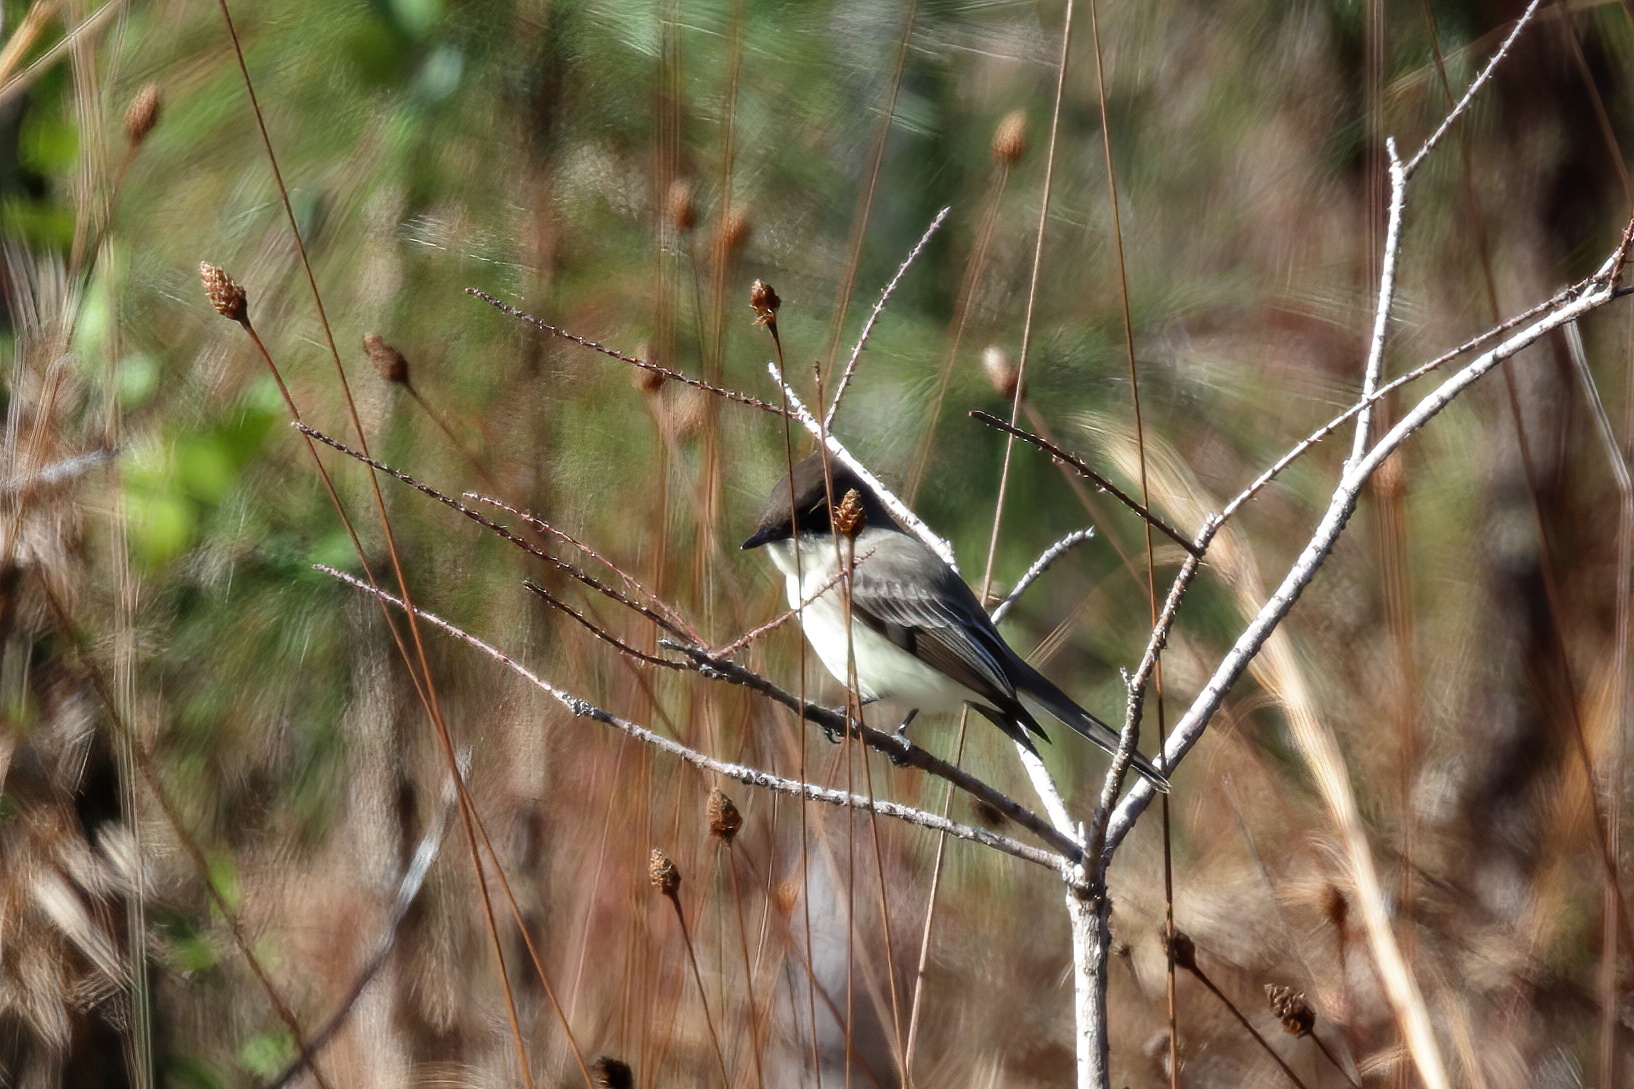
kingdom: Animalia
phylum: Chordata
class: Aves
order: Passeriformes
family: Tyrannidae
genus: Sayornis
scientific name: Sayornis phoebe
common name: Eastern phoebe
